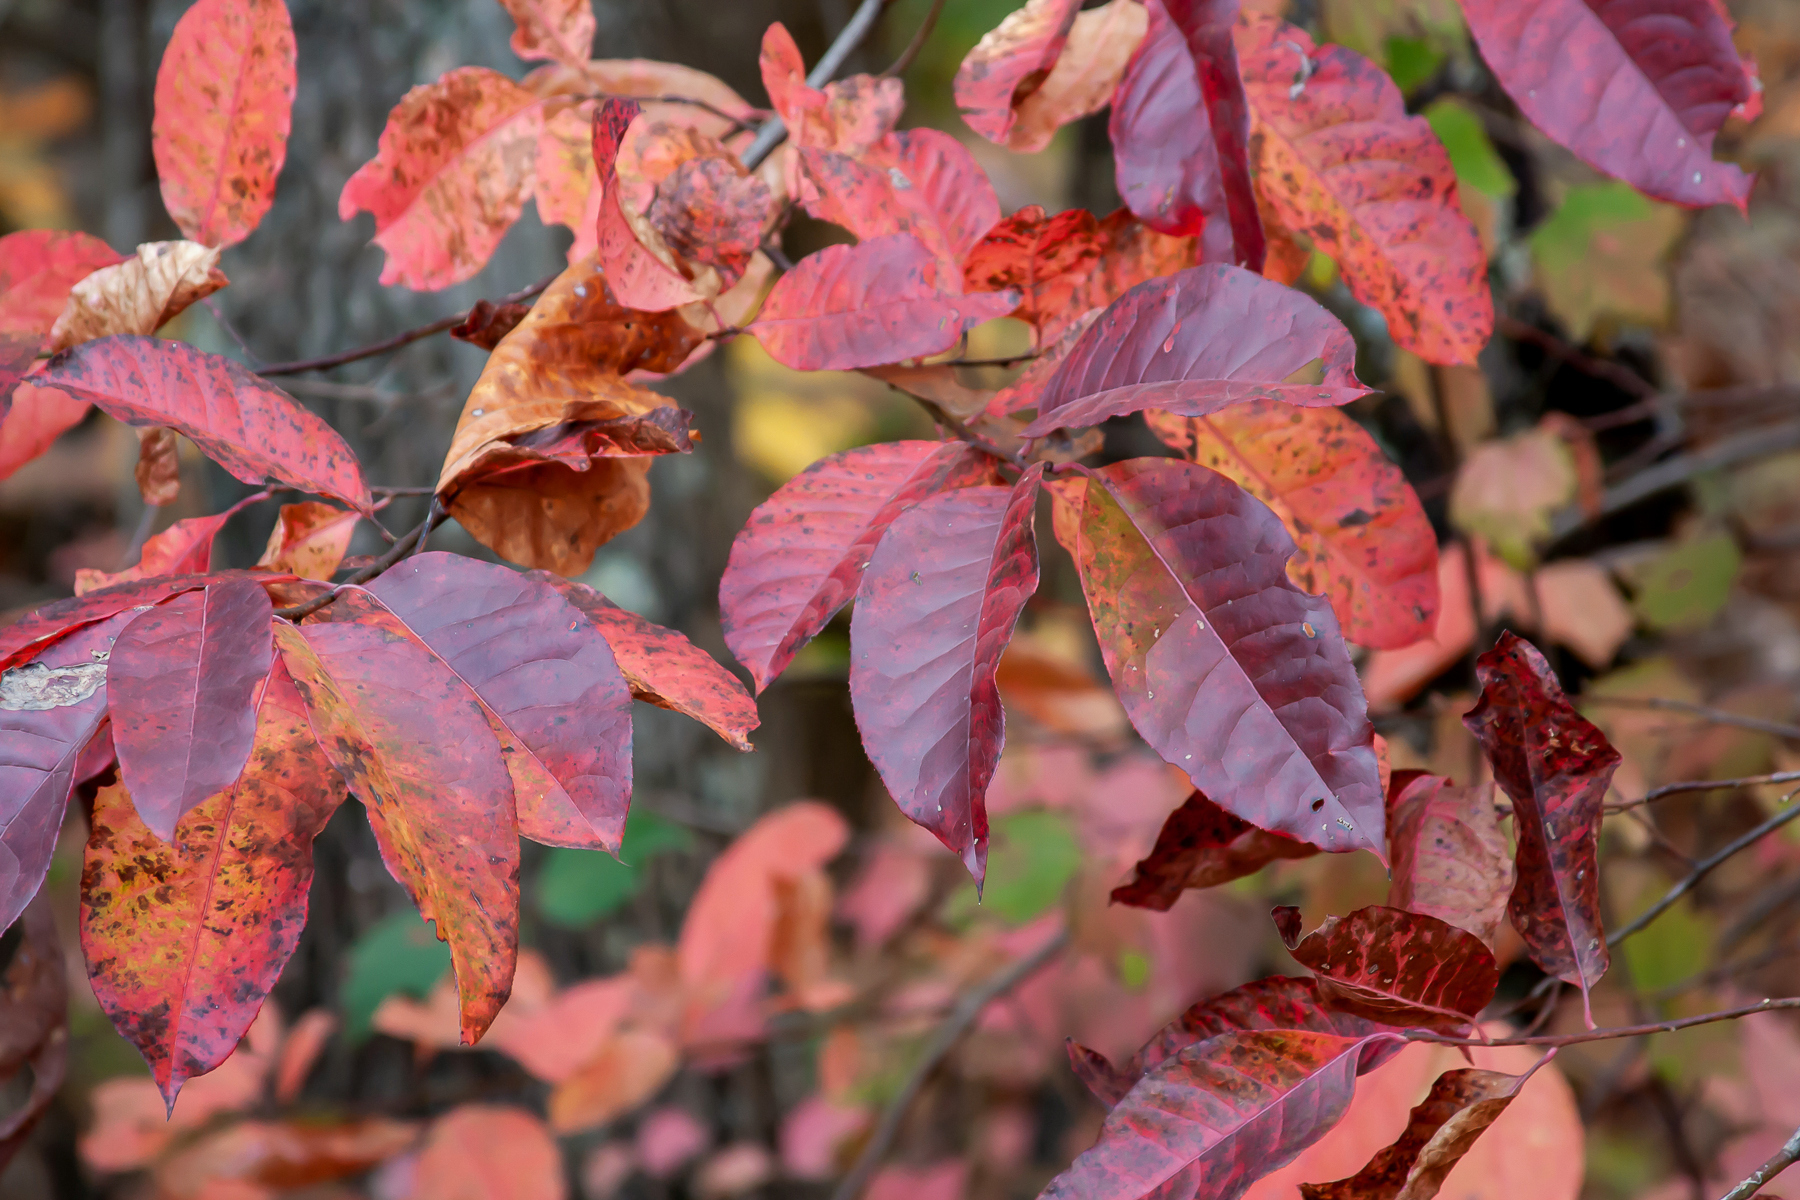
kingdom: Plantae
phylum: Tracheophyta
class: Magnoliopsida
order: Ericales
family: Ericaceae
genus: Oxydendrum
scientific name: Oxydendrum arboreum
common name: Sourwood
